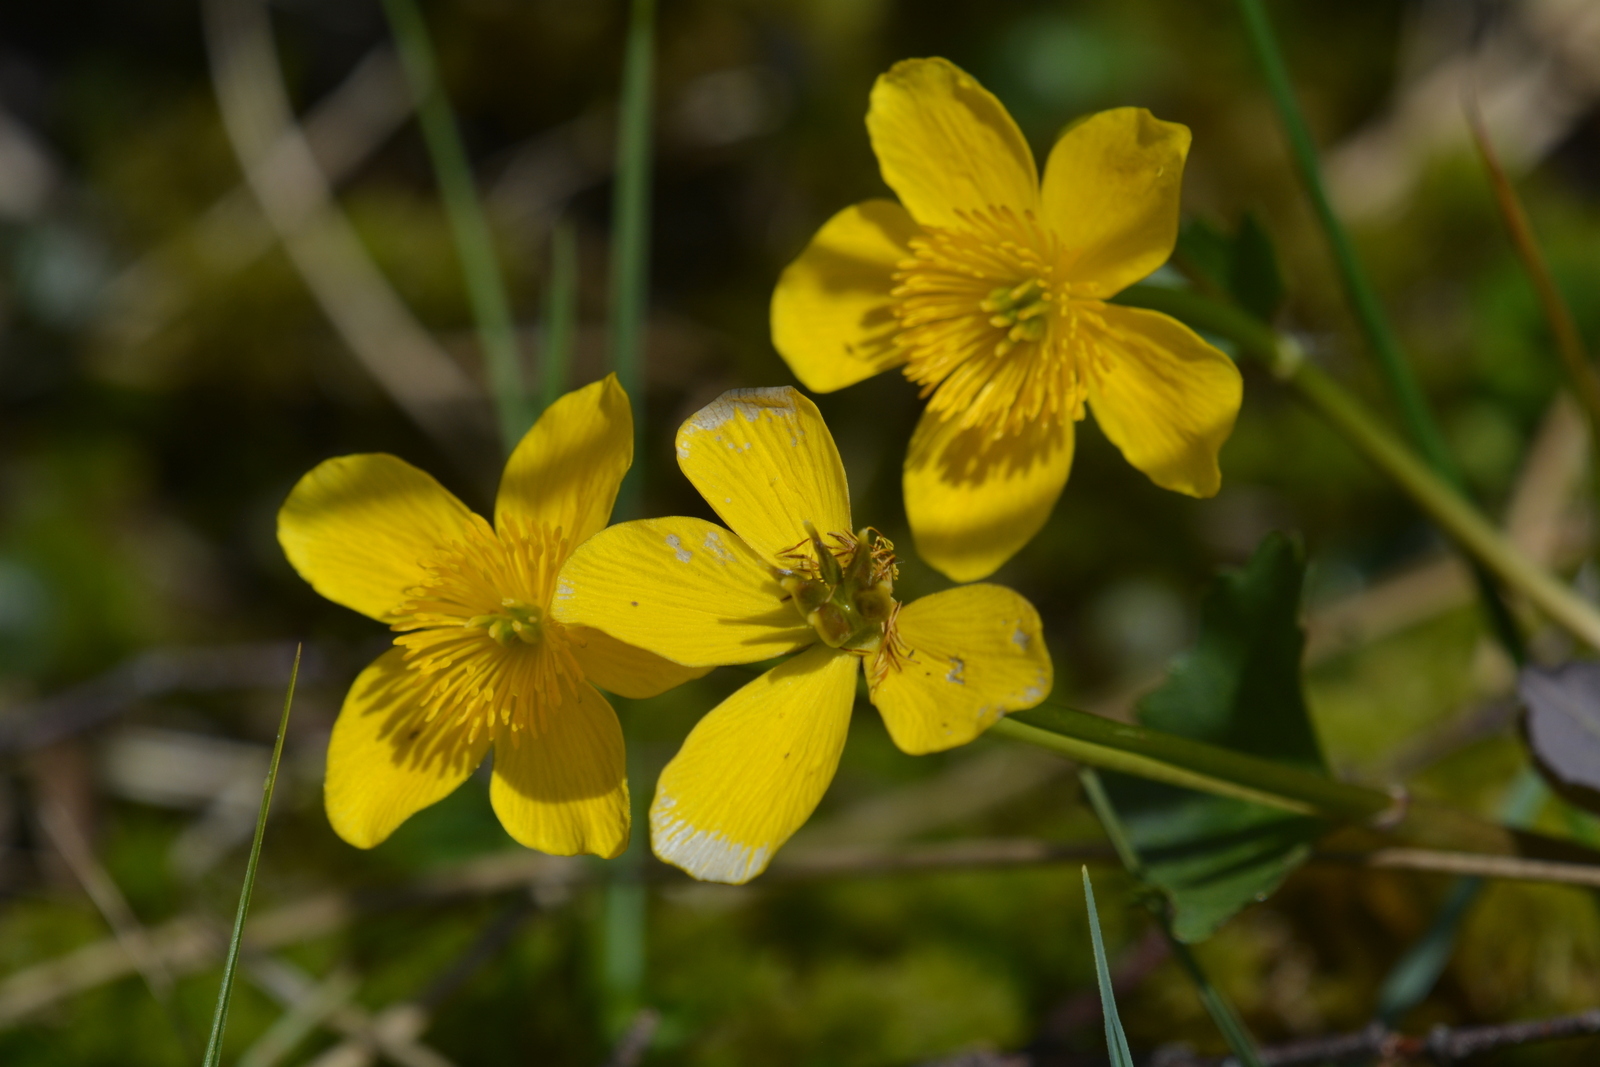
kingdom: Plantae
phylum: Tracheophyta
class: Magnoliopsida
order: Ranunculales
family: Ranunculaceae
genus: Caltha
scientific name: Caltha palustris
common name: Marsh marigold
